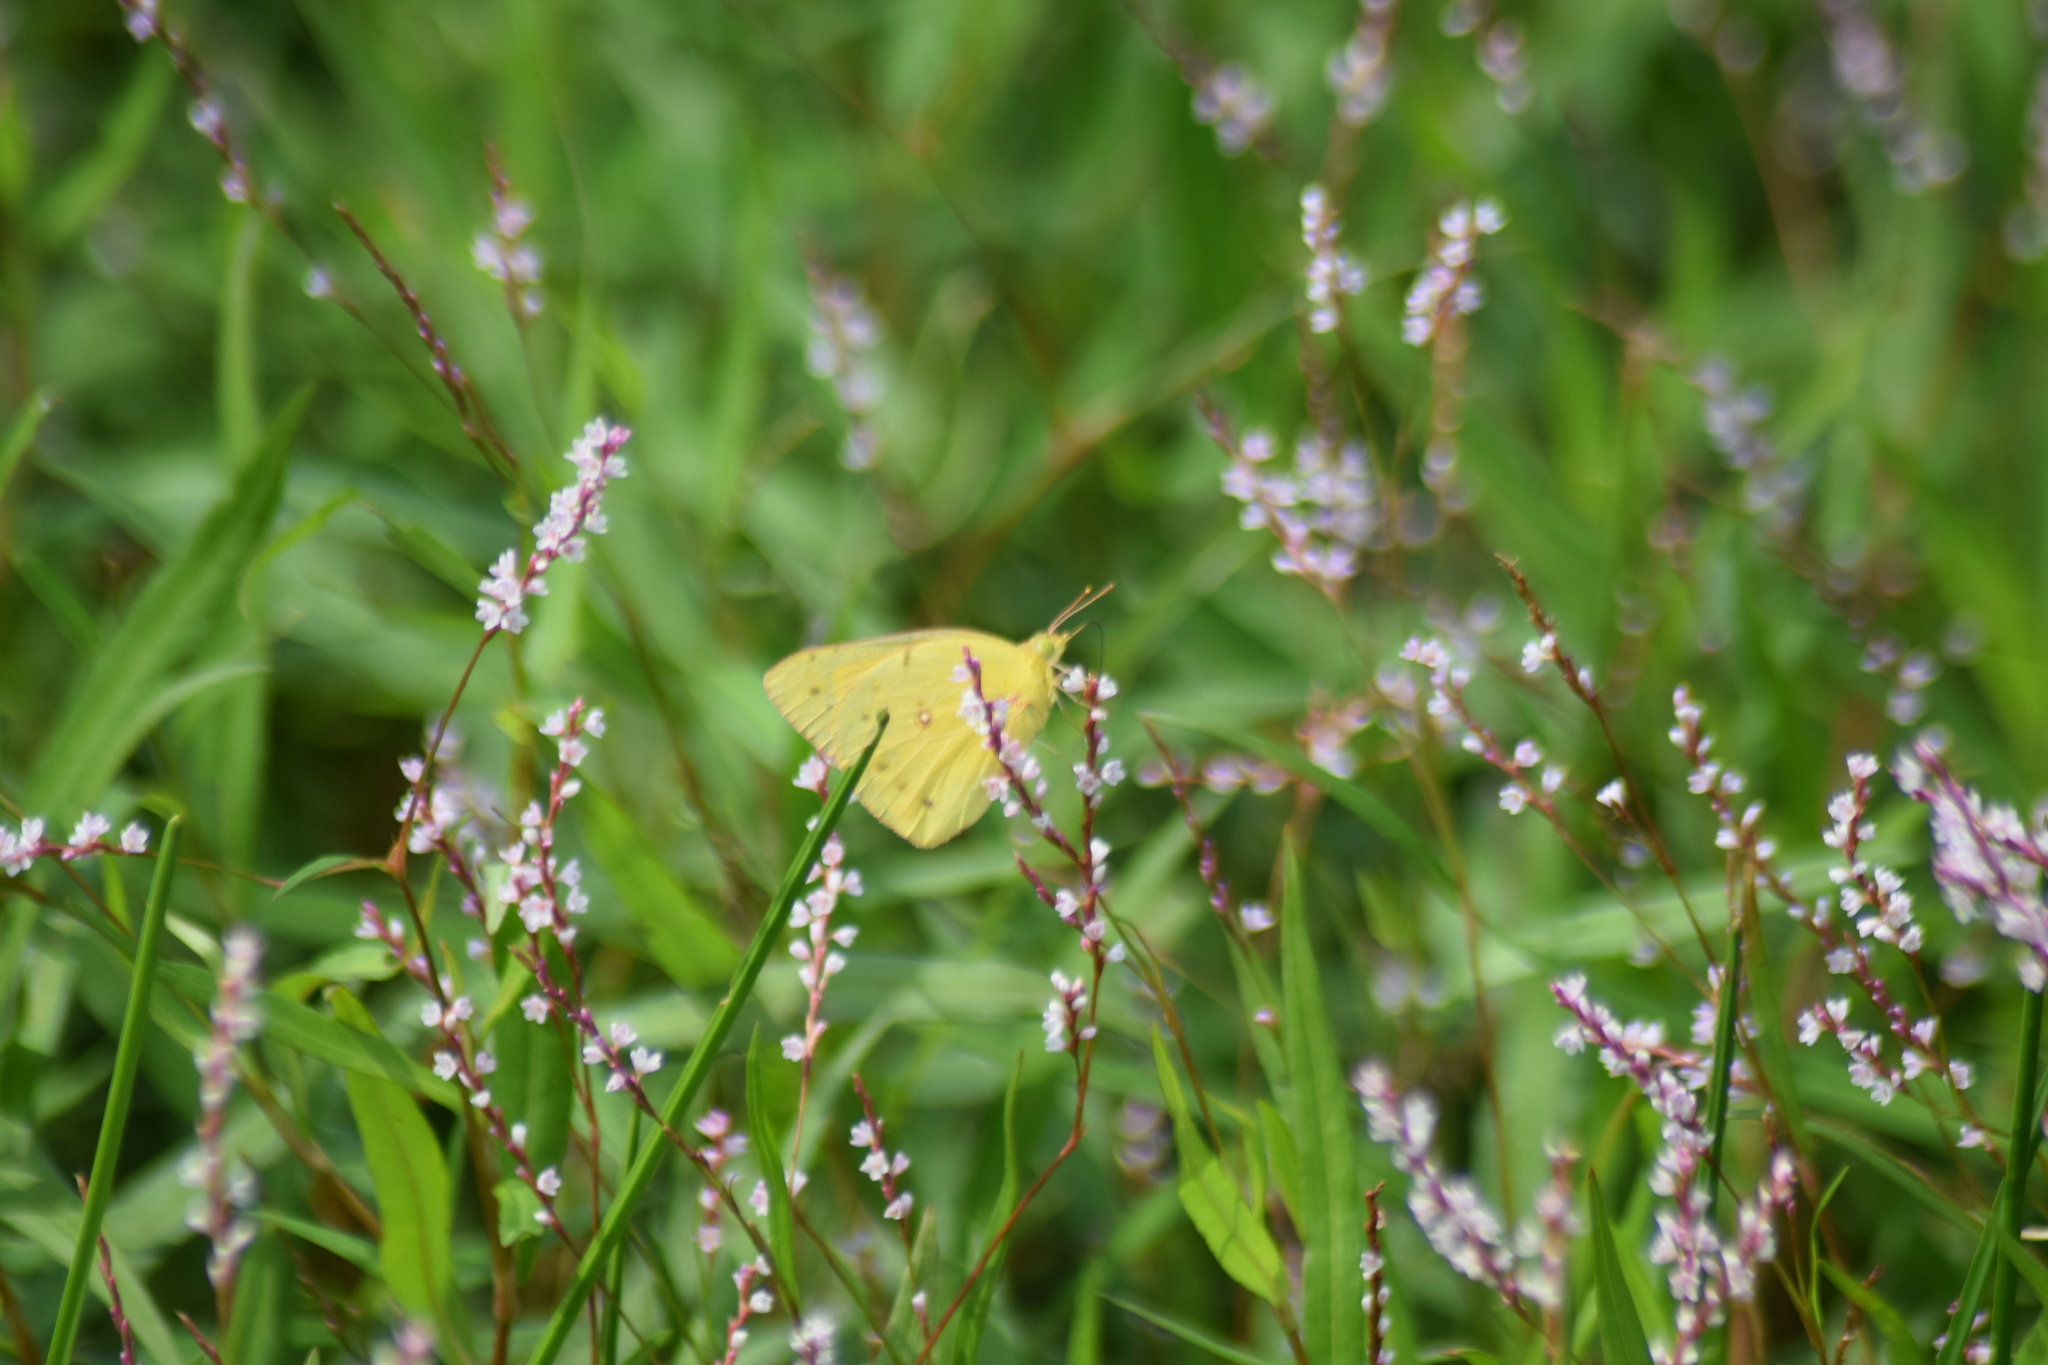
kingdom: Animalia
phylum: Arthropoda
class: Insecta
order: Lepidoptera
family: Pieridae
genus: Colias
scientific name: Colias eurytheme
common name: Alfalfa butterfly
